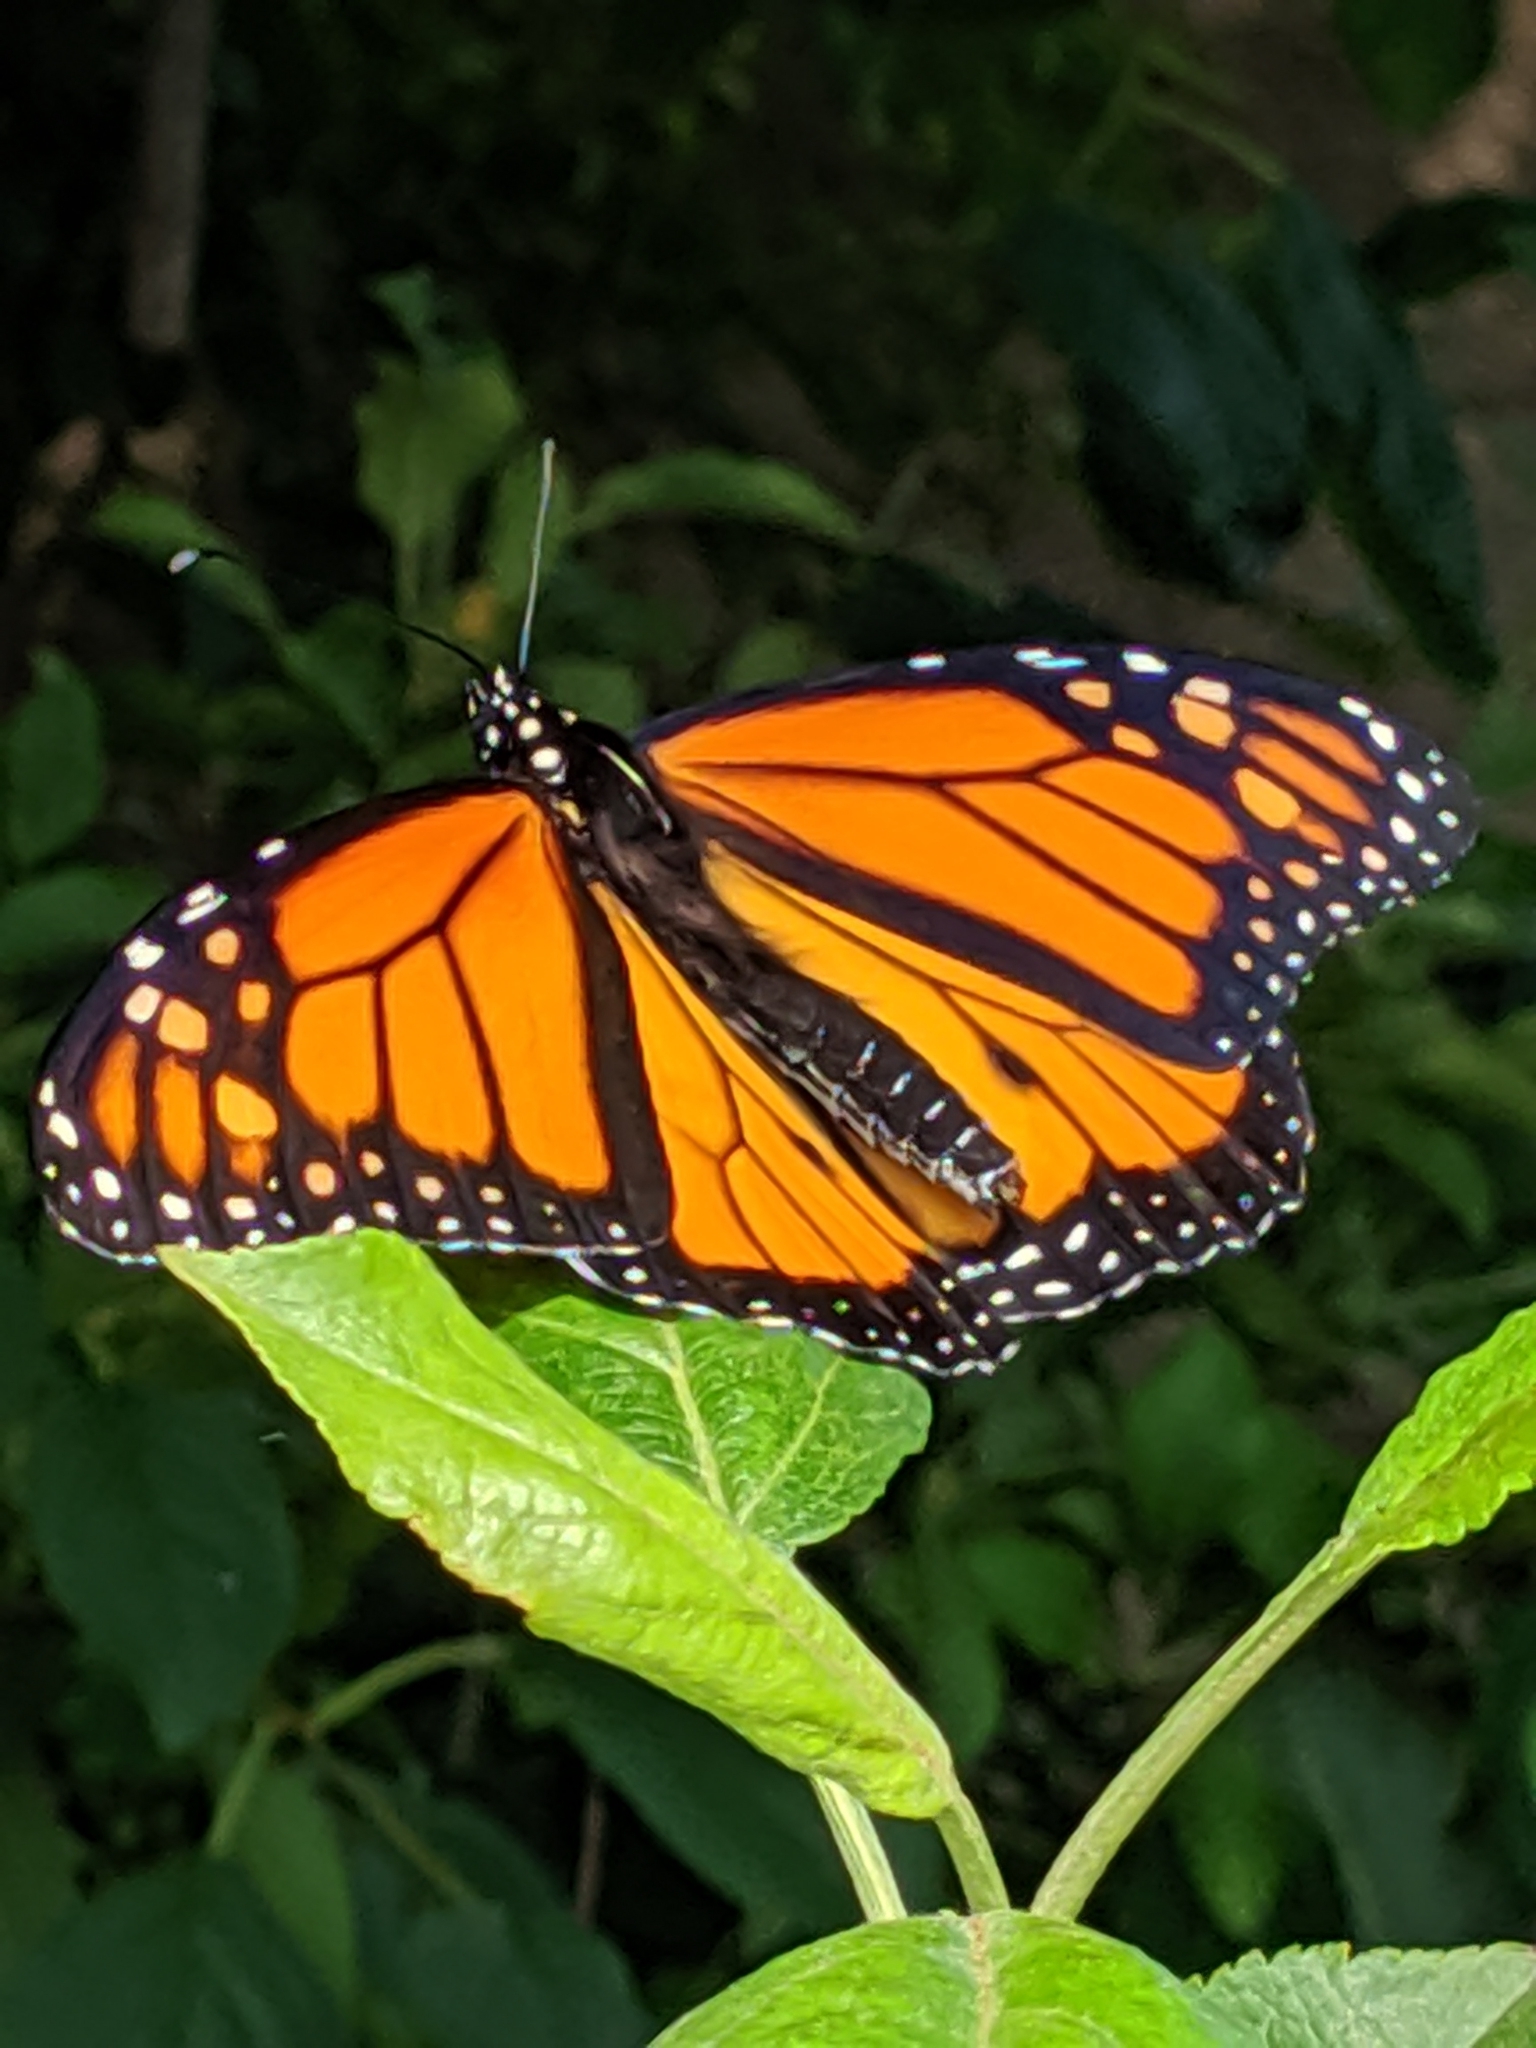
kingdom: Animalia
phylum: Arthropoda
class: Insecta
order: Lepidoptera
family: Nymphalidae
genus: Danaus
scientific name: Danaus plexippus
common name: Monarch
